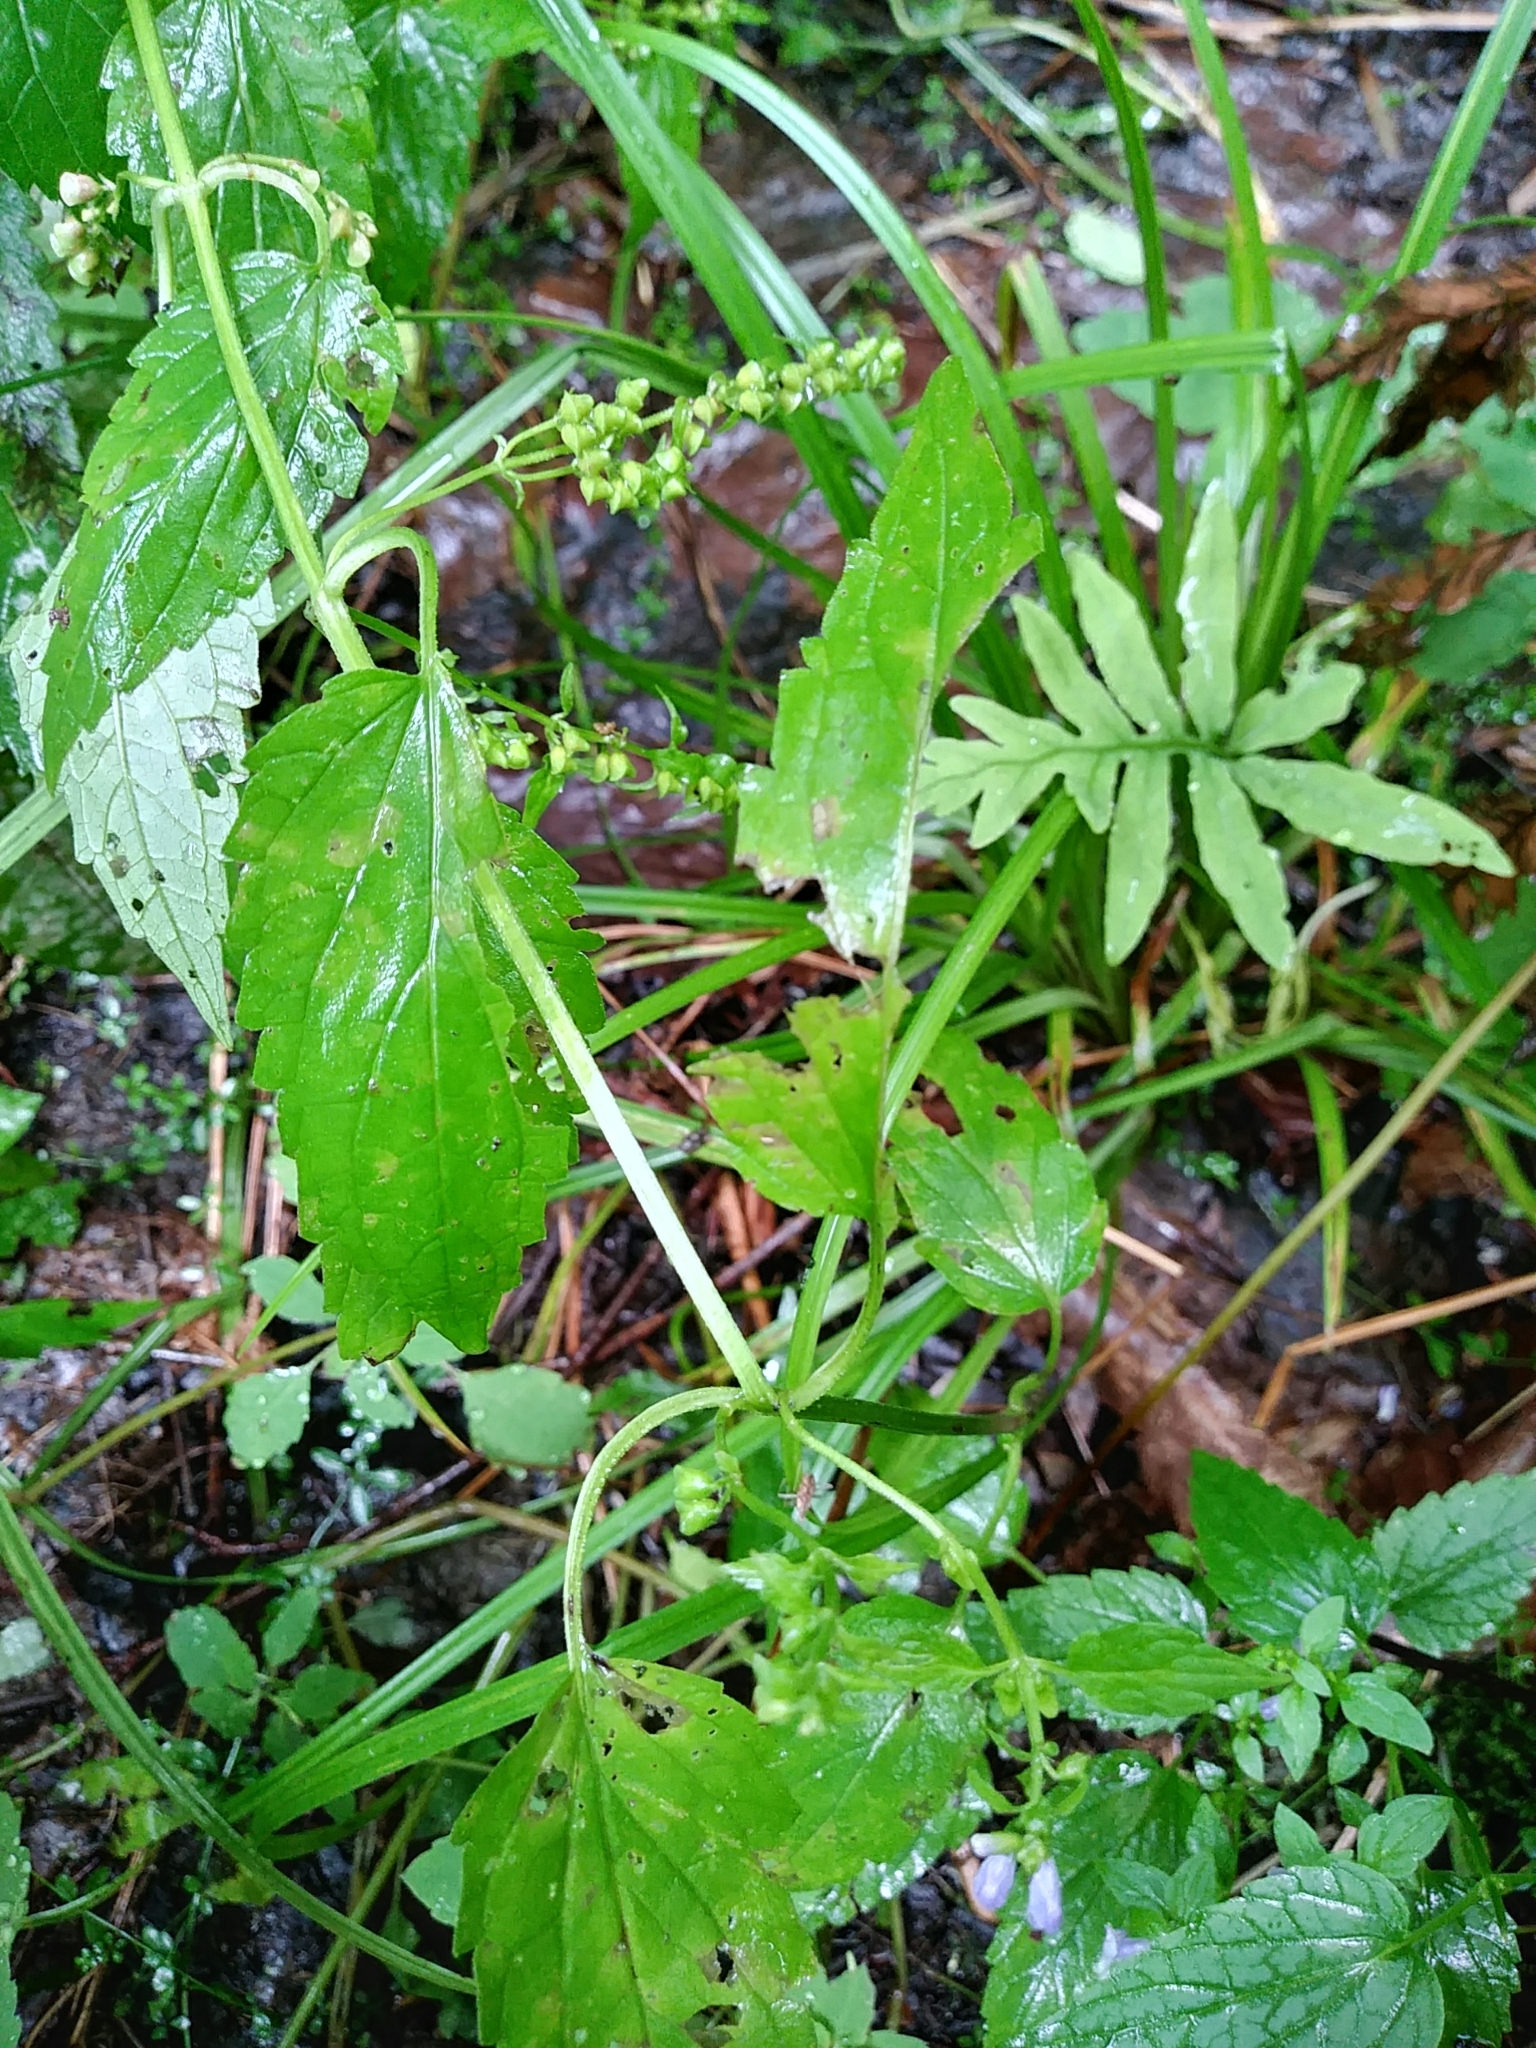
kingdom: Plantae
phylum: Tracheophyta
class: Magnoliopsida
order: Lamiales
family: Lamiaceae
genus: Scutellaria
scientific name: Scutellaria lateriflora
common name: Blue skullcap
